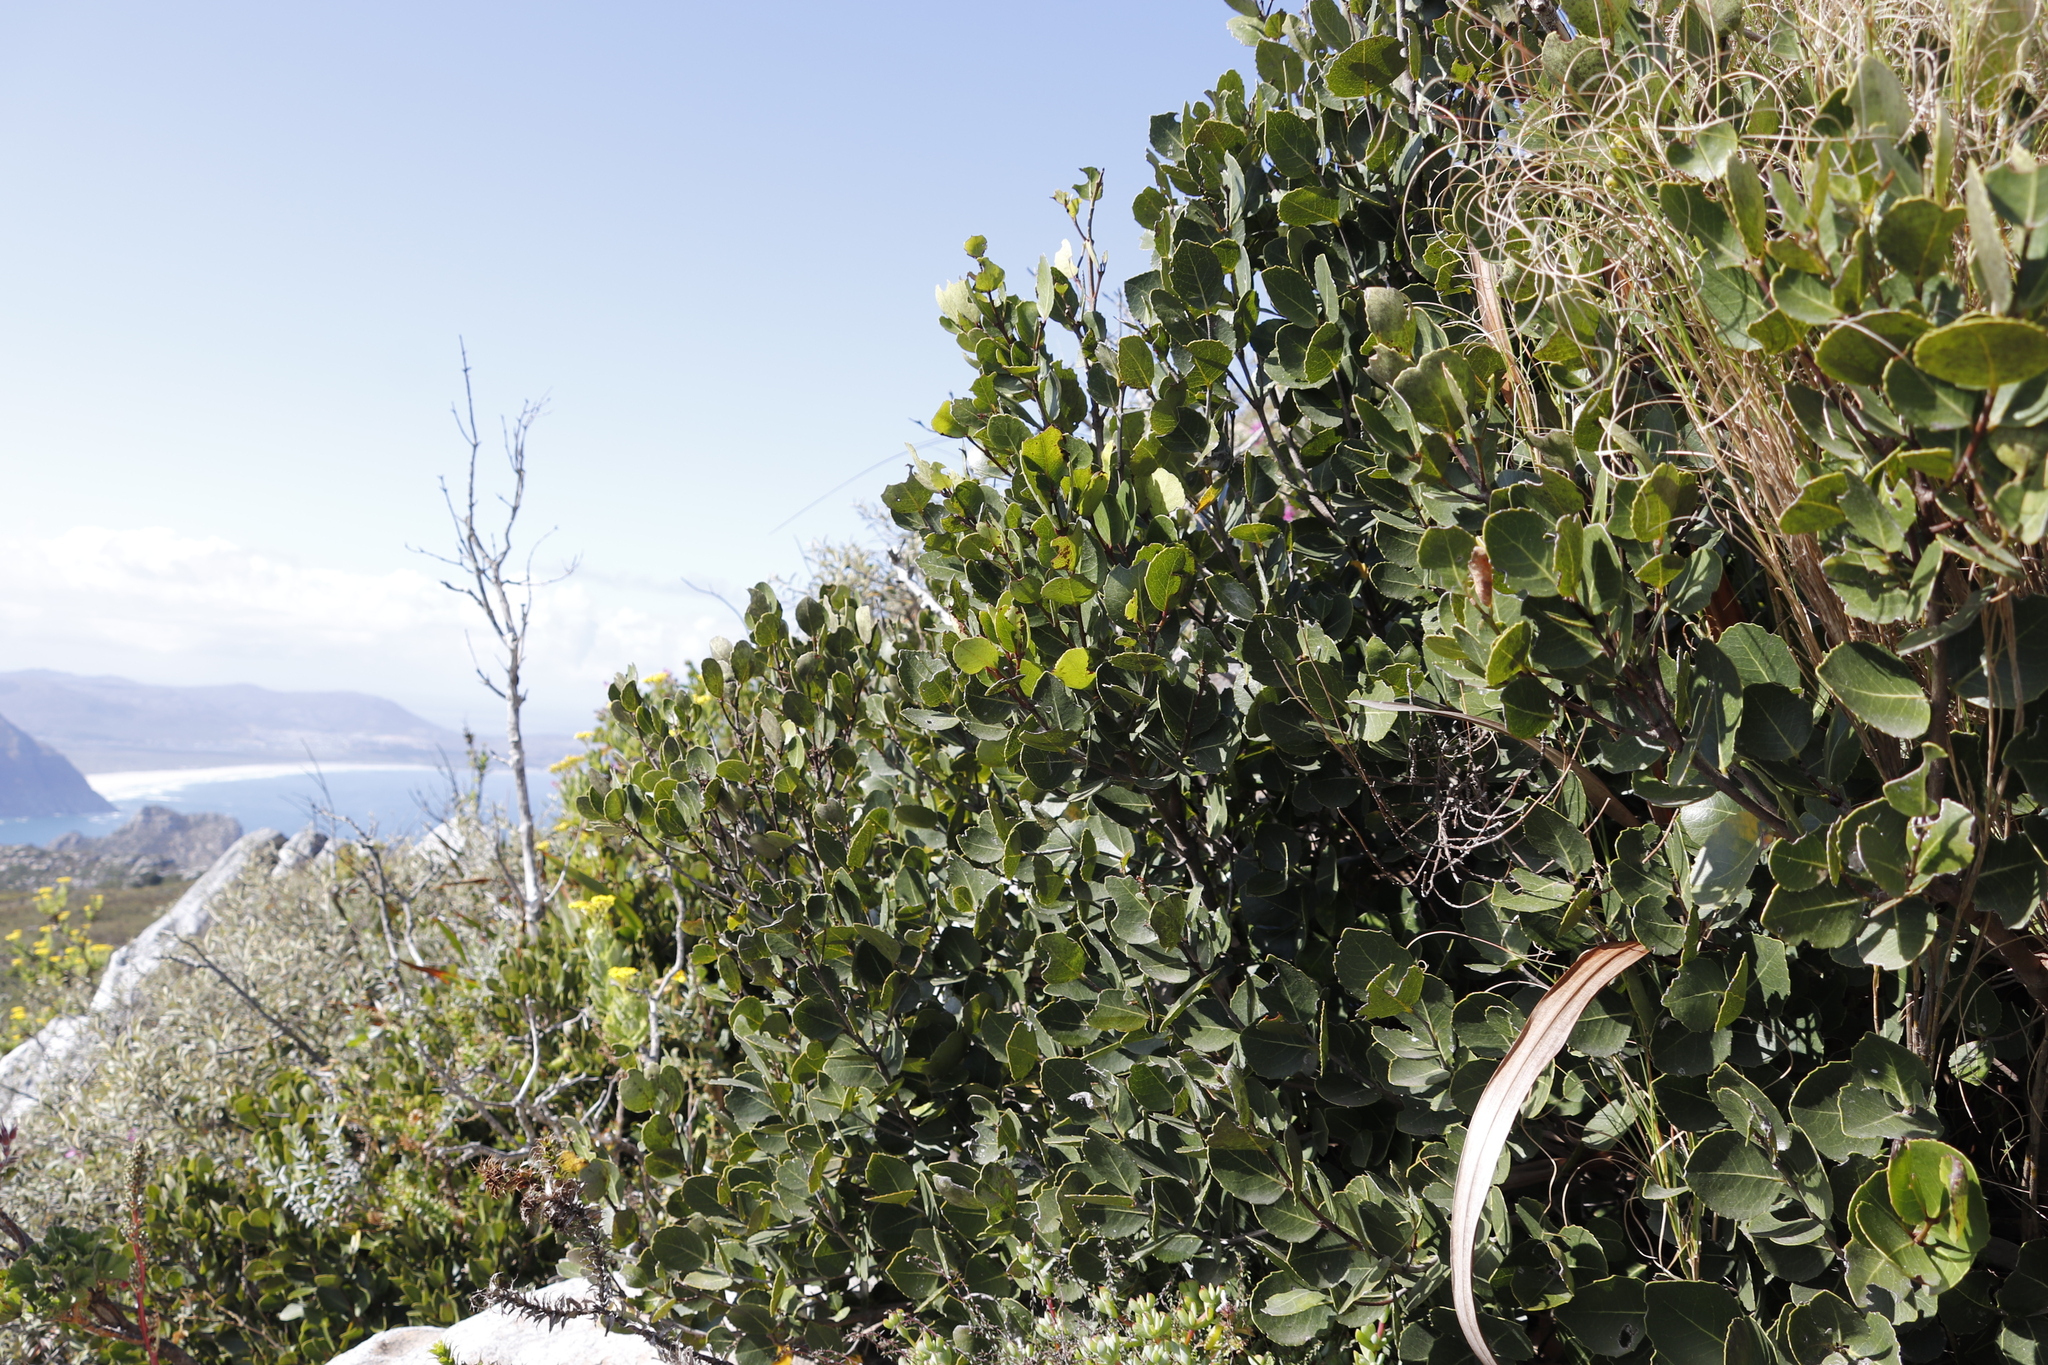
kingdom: Plantae
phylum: Tracheophyta
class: Magnoliopsida
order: Celastrales
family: Celastraceae
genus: Cassine
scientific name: Cassine peragua
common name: Cape saffron
